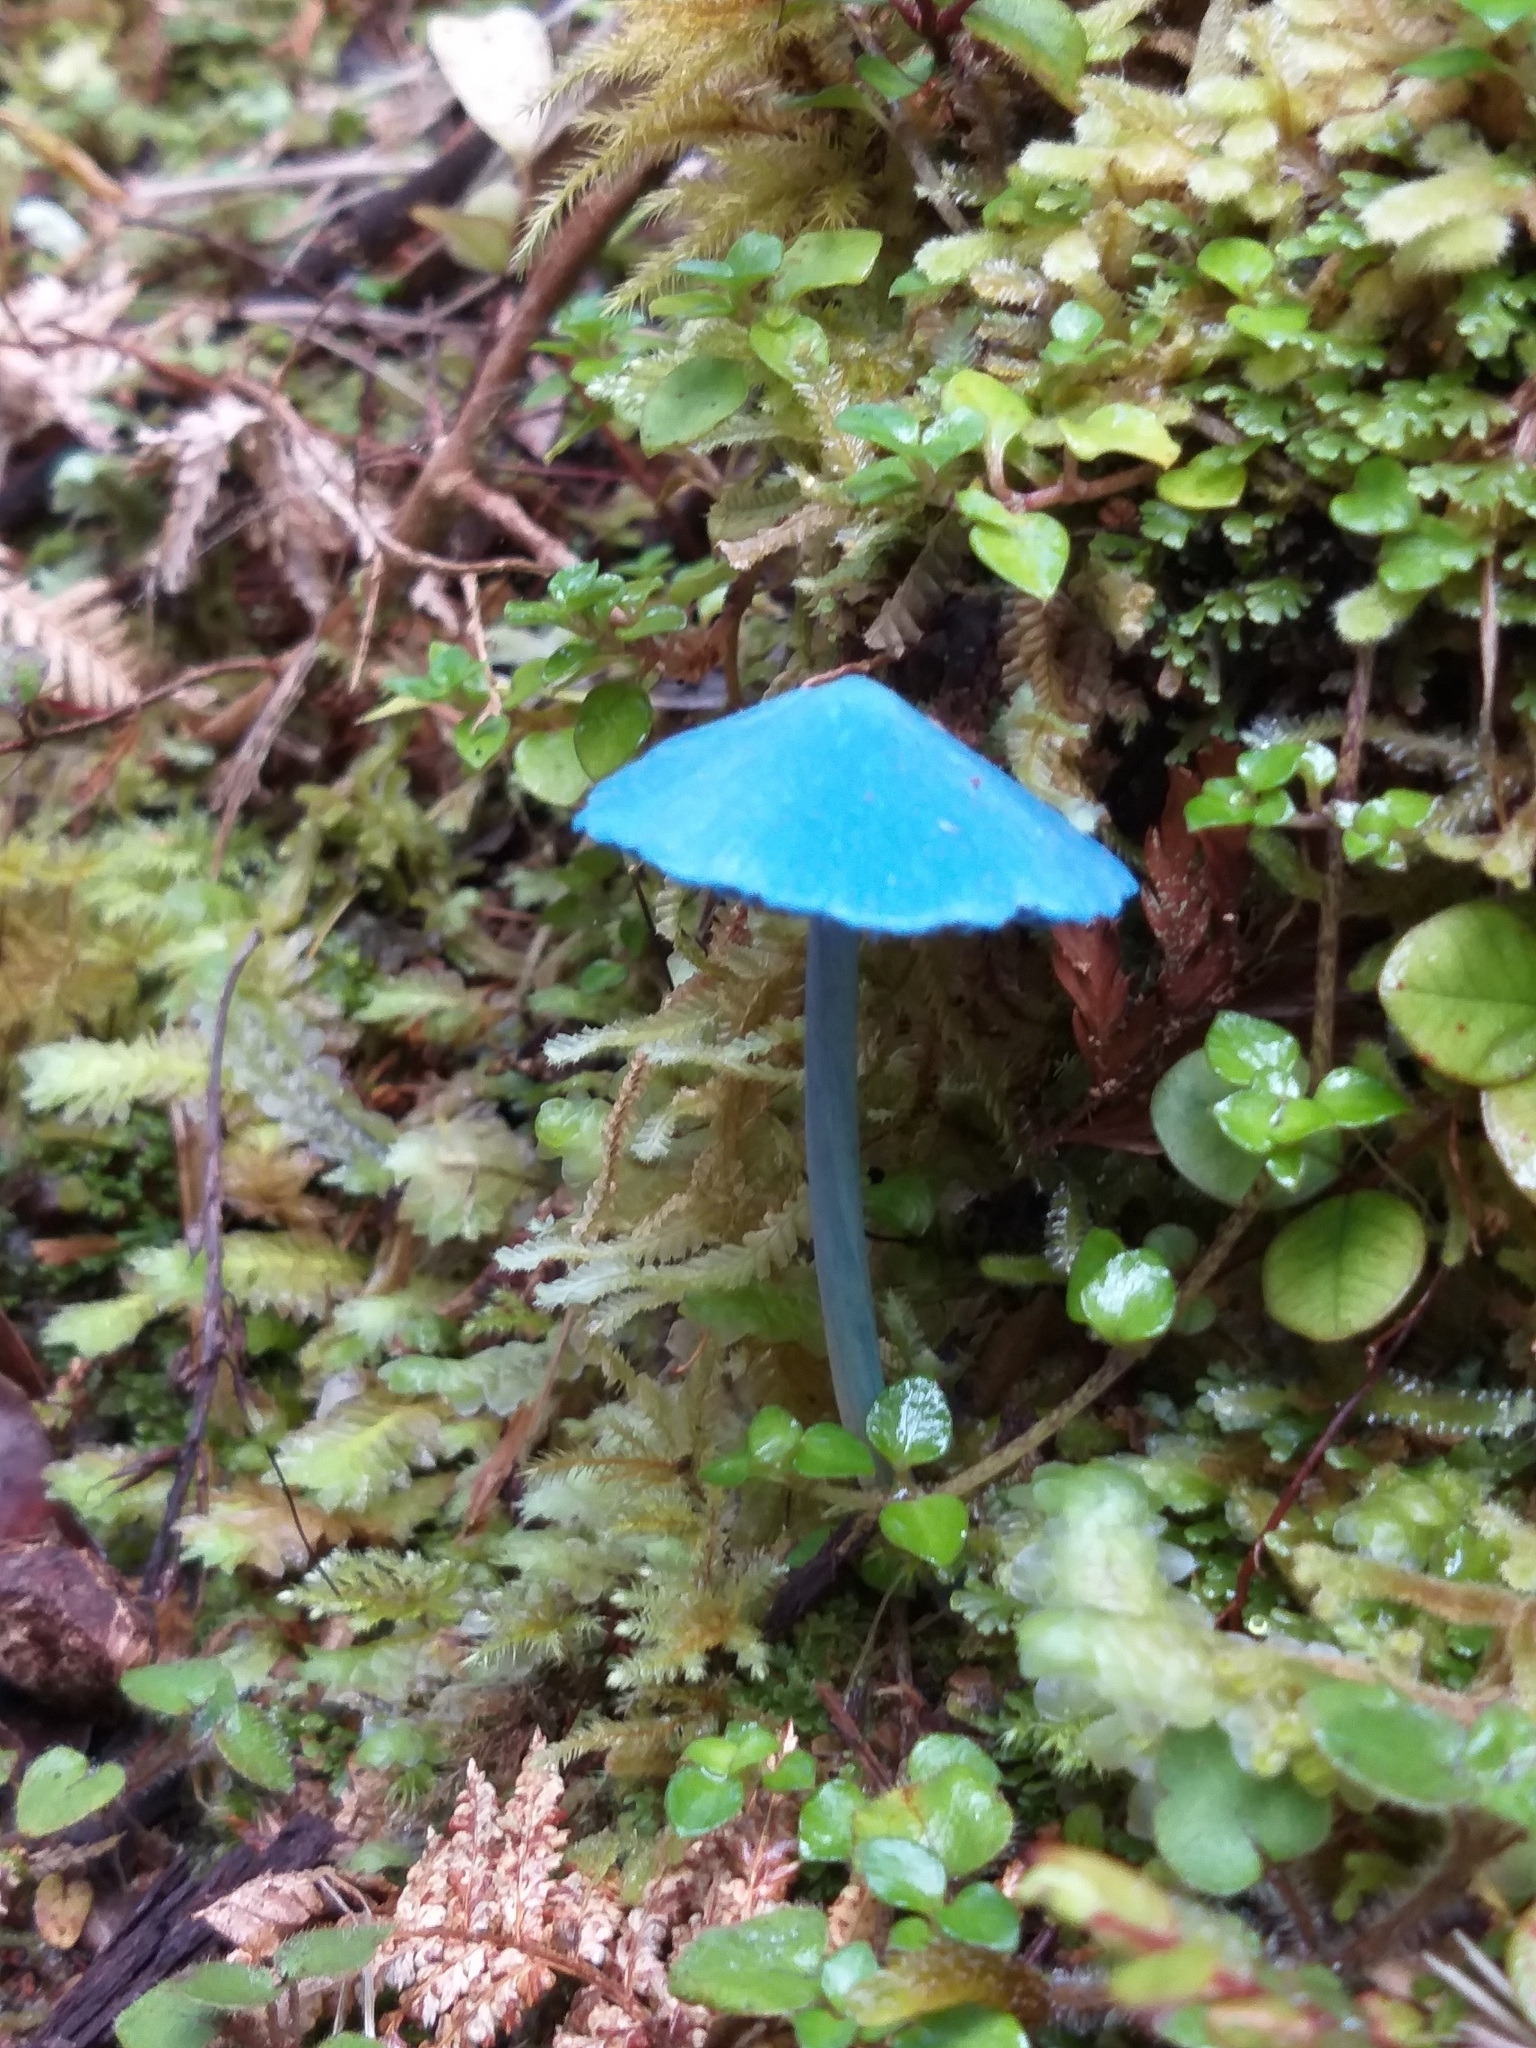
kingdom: Fungi
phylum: Basidiomycota
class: Agaricomycetes
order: Agaricales
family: Entolomataceae
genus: Entoloma
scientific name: Entoloma hochstetteri
